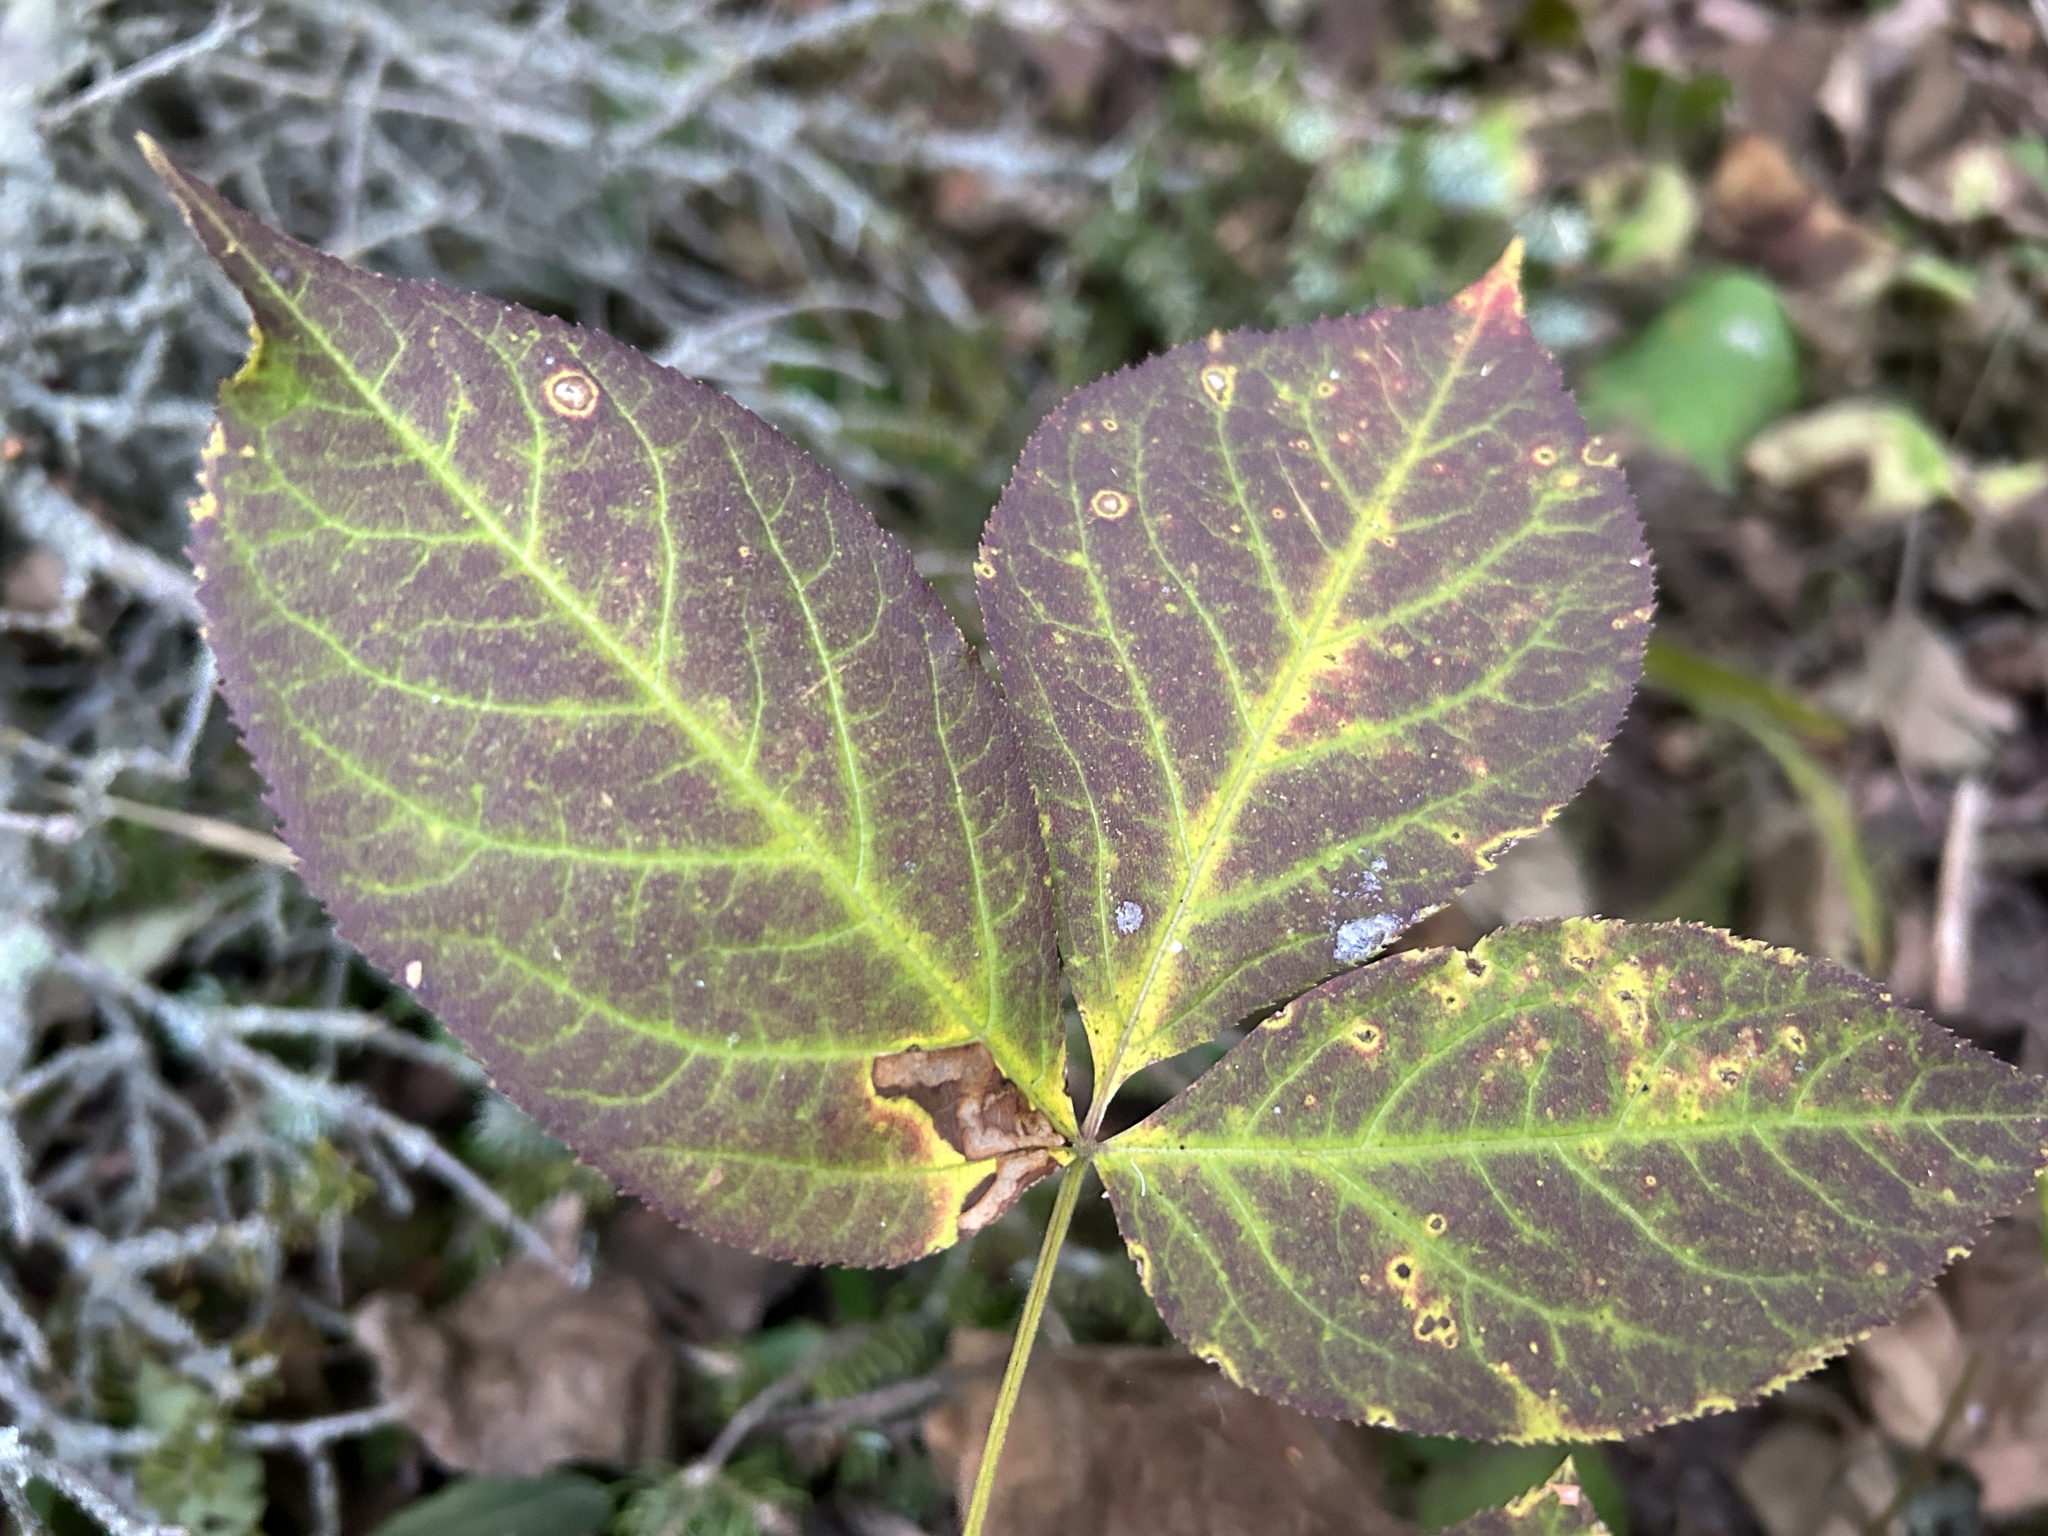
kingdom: Plantae
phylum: Tracheophyta
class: Magnoliopsida
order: Apiales
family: Araliaceae
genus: Aralia
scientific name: Aralia nudicaulis
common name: Wild sarsaparilla
